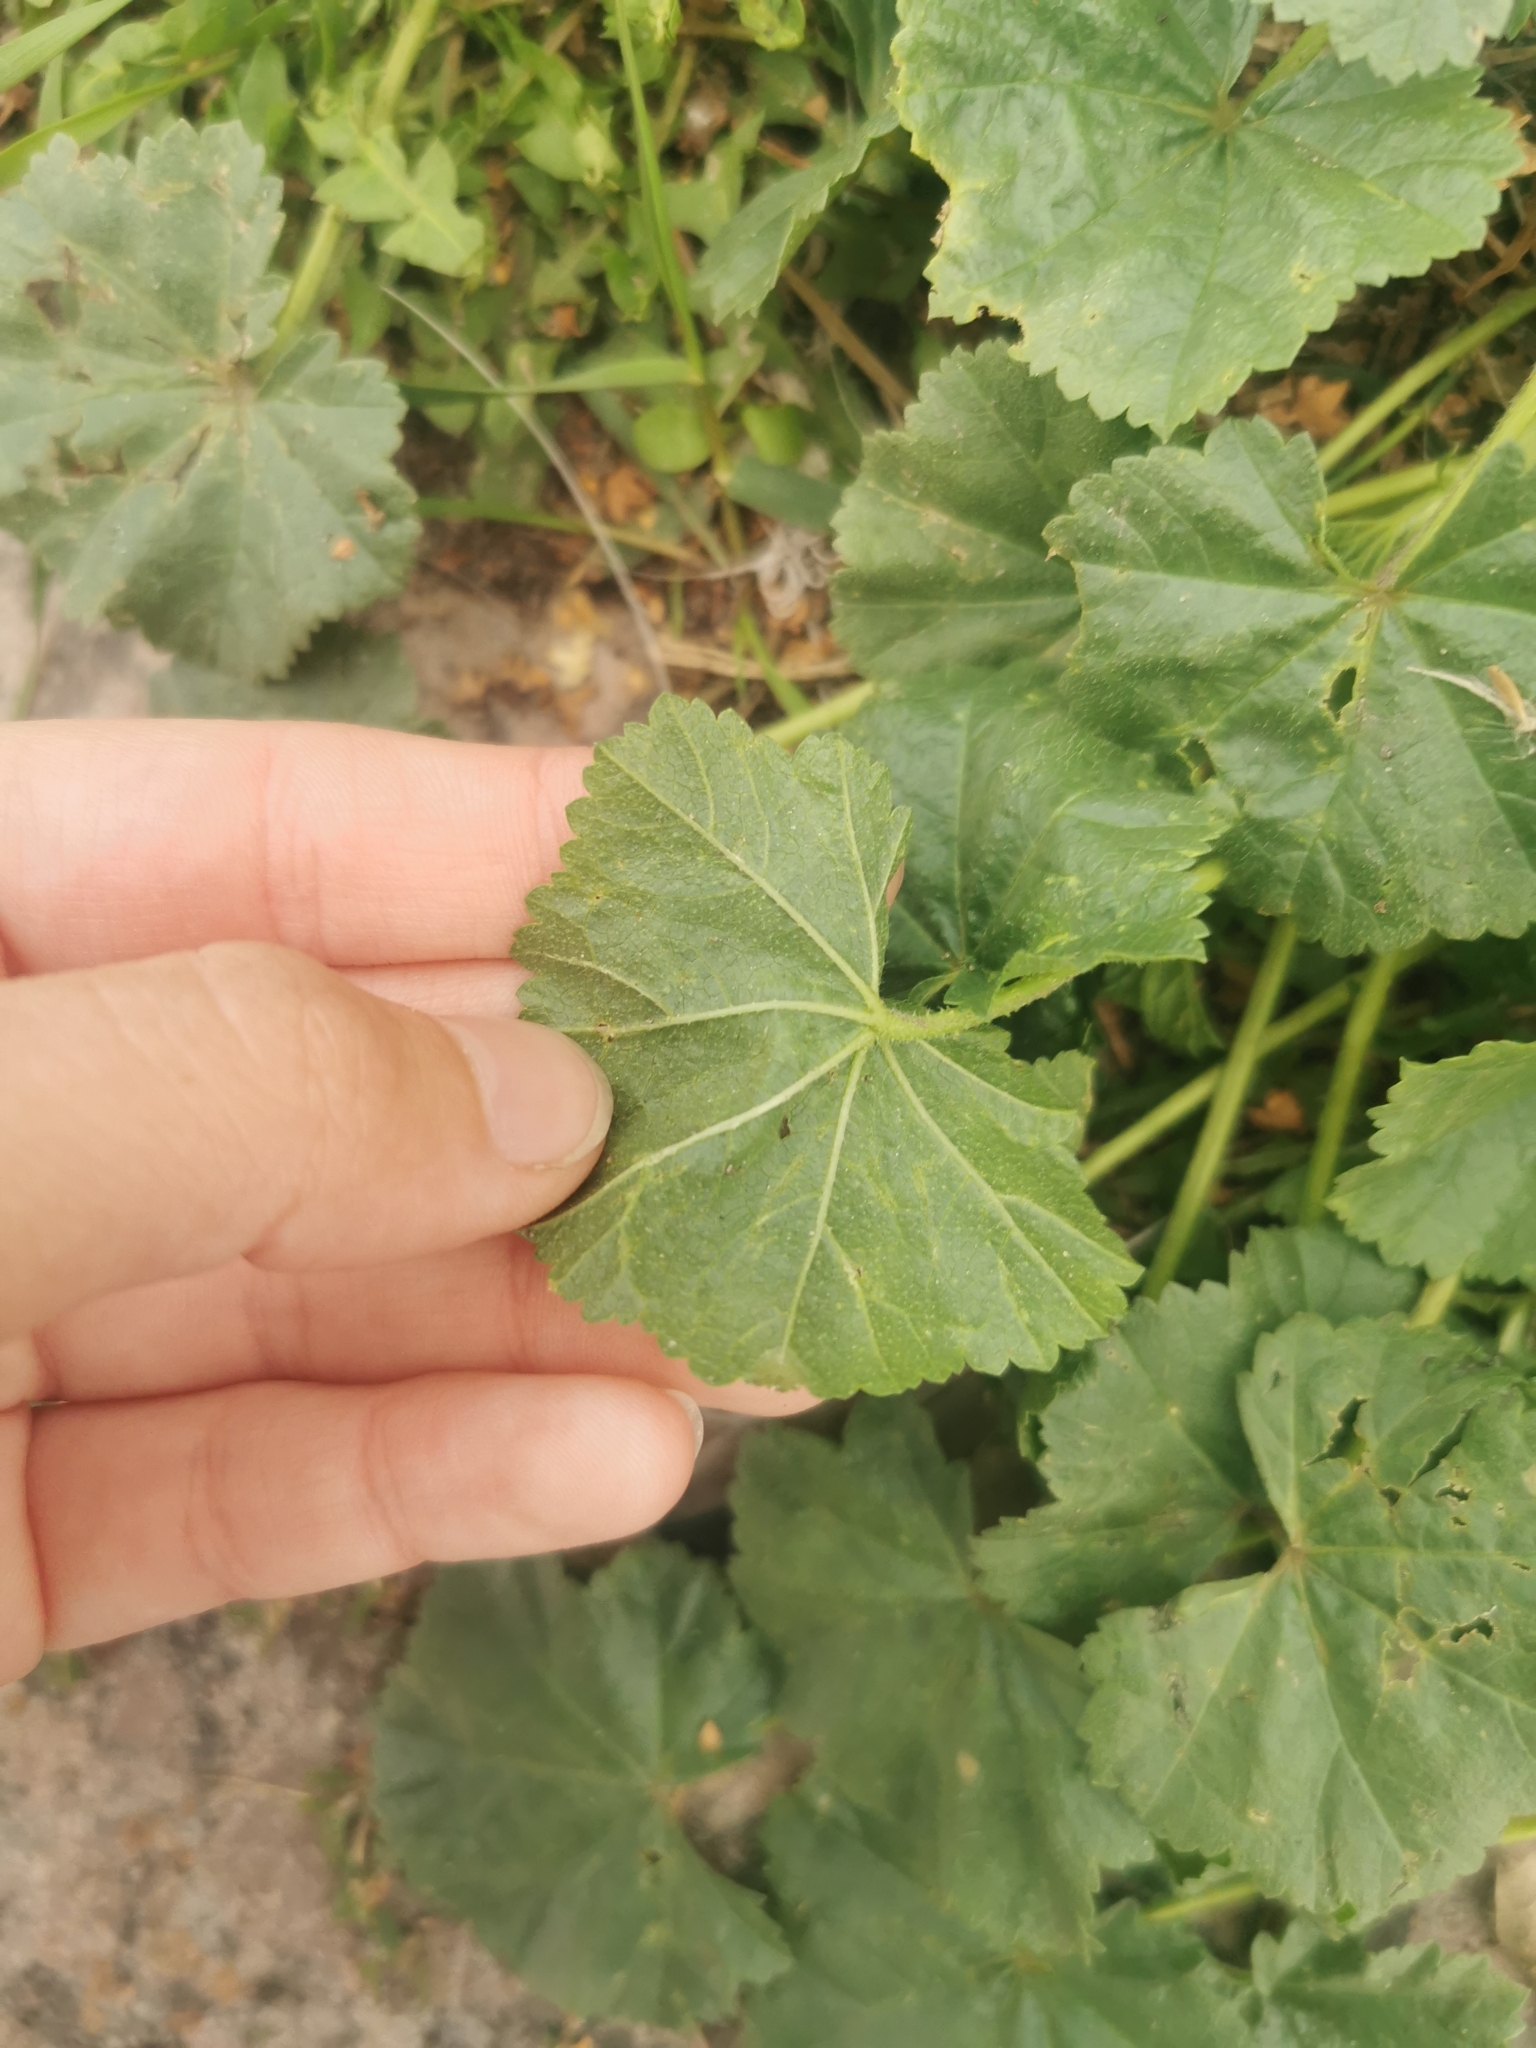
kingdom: Plantae
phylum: Tracheophyta
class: Magnoliopsida
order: Malvales
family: Malvaceae
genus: Malva
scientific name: Malva pusilla
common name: Small mallow
